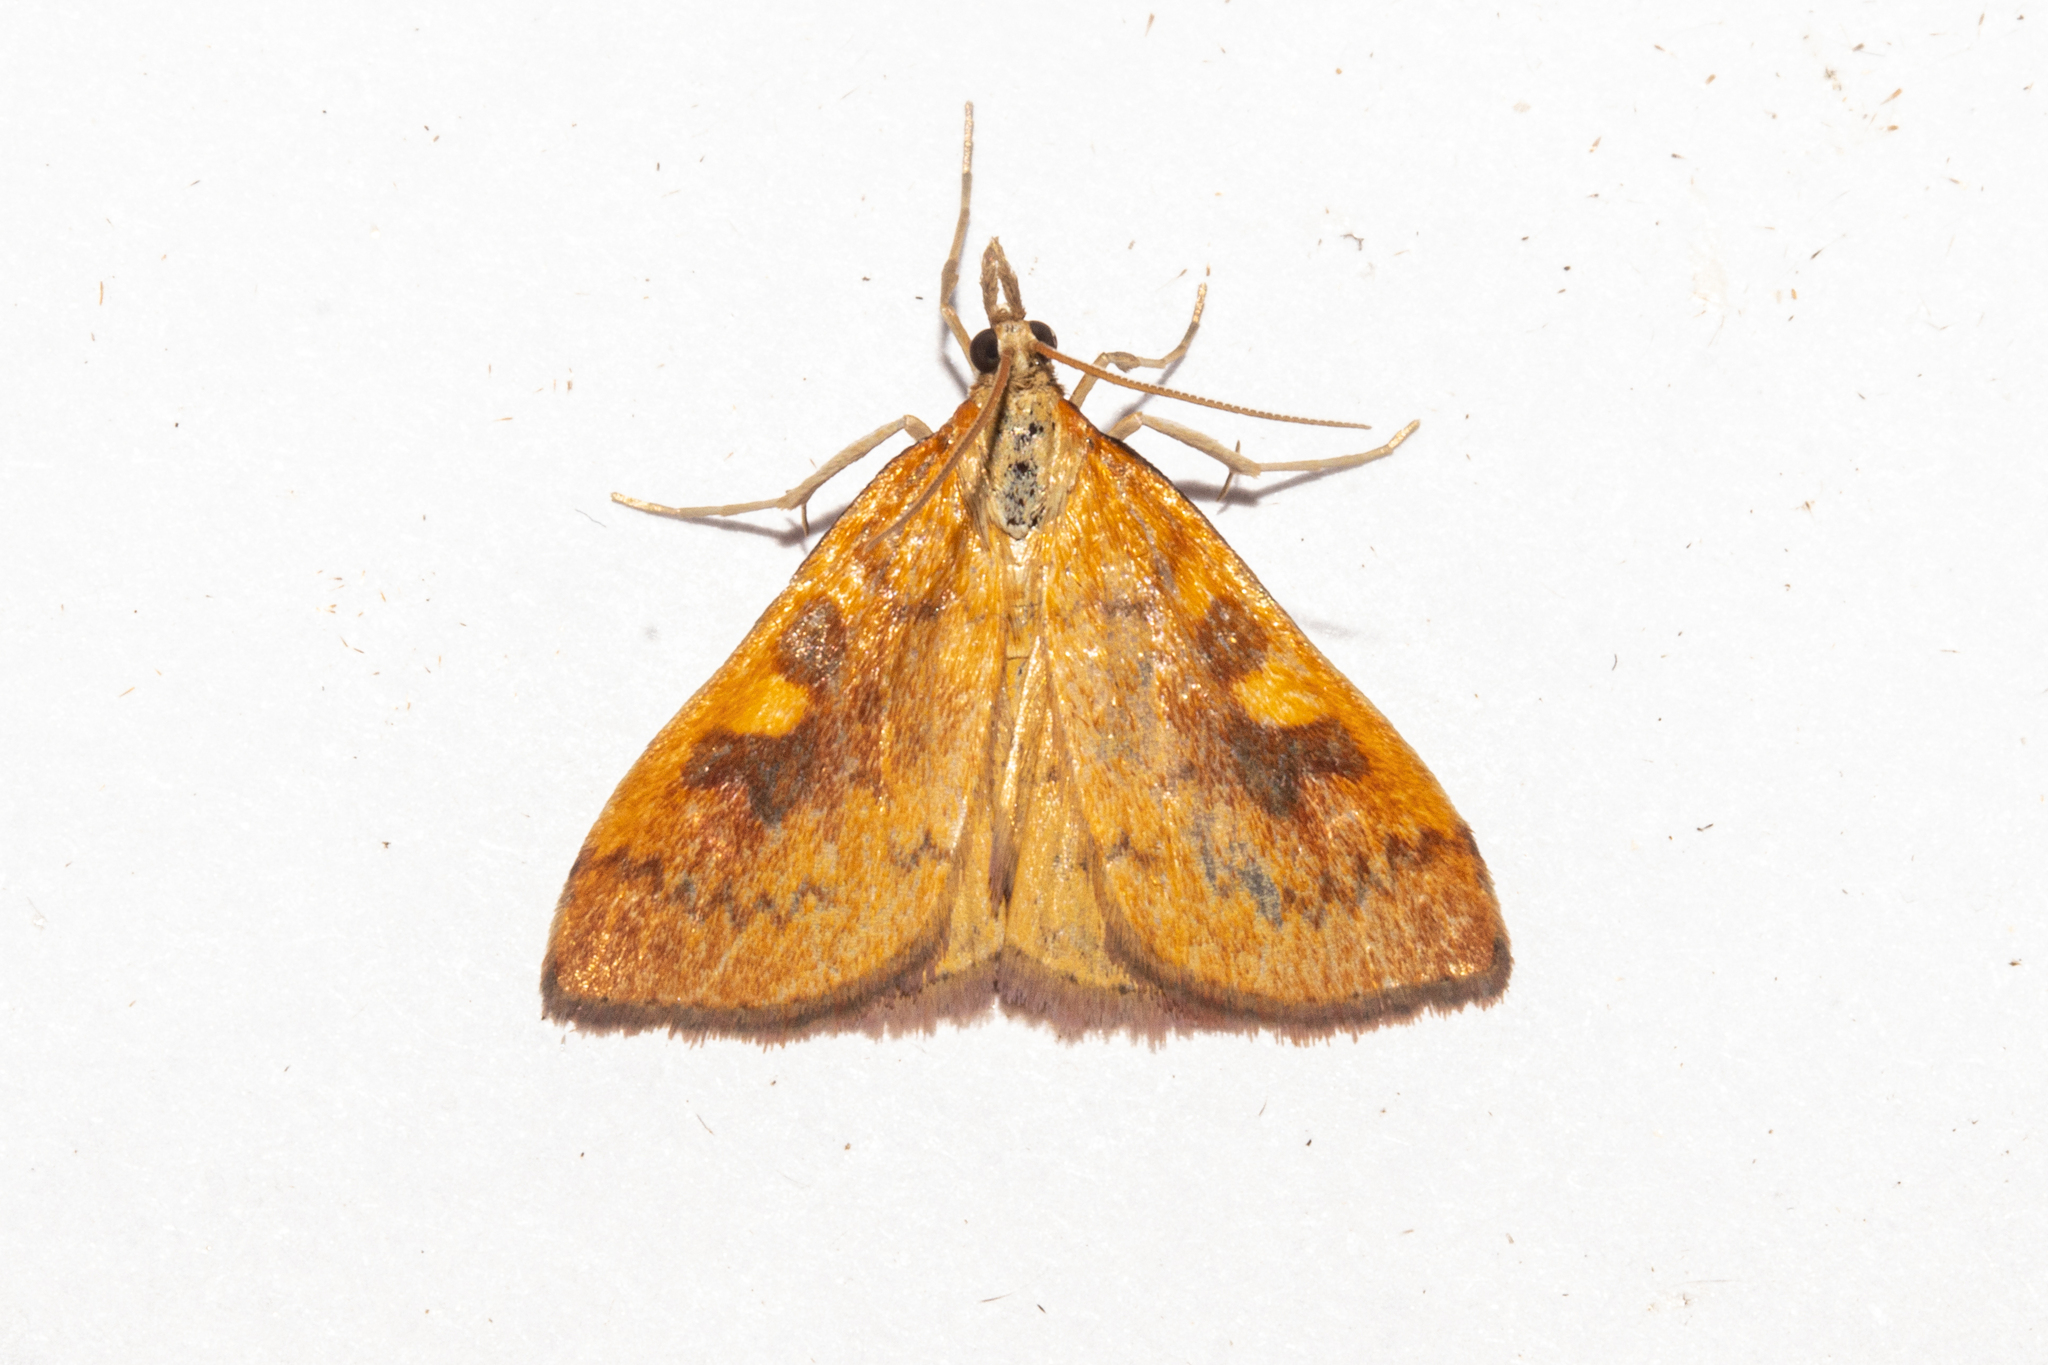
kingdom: Animalia
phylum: Arthropoda
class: Insecta
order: Lepidoptera
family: Crambidae
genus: Udea
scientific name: Udea Mnesictena flavidalis
